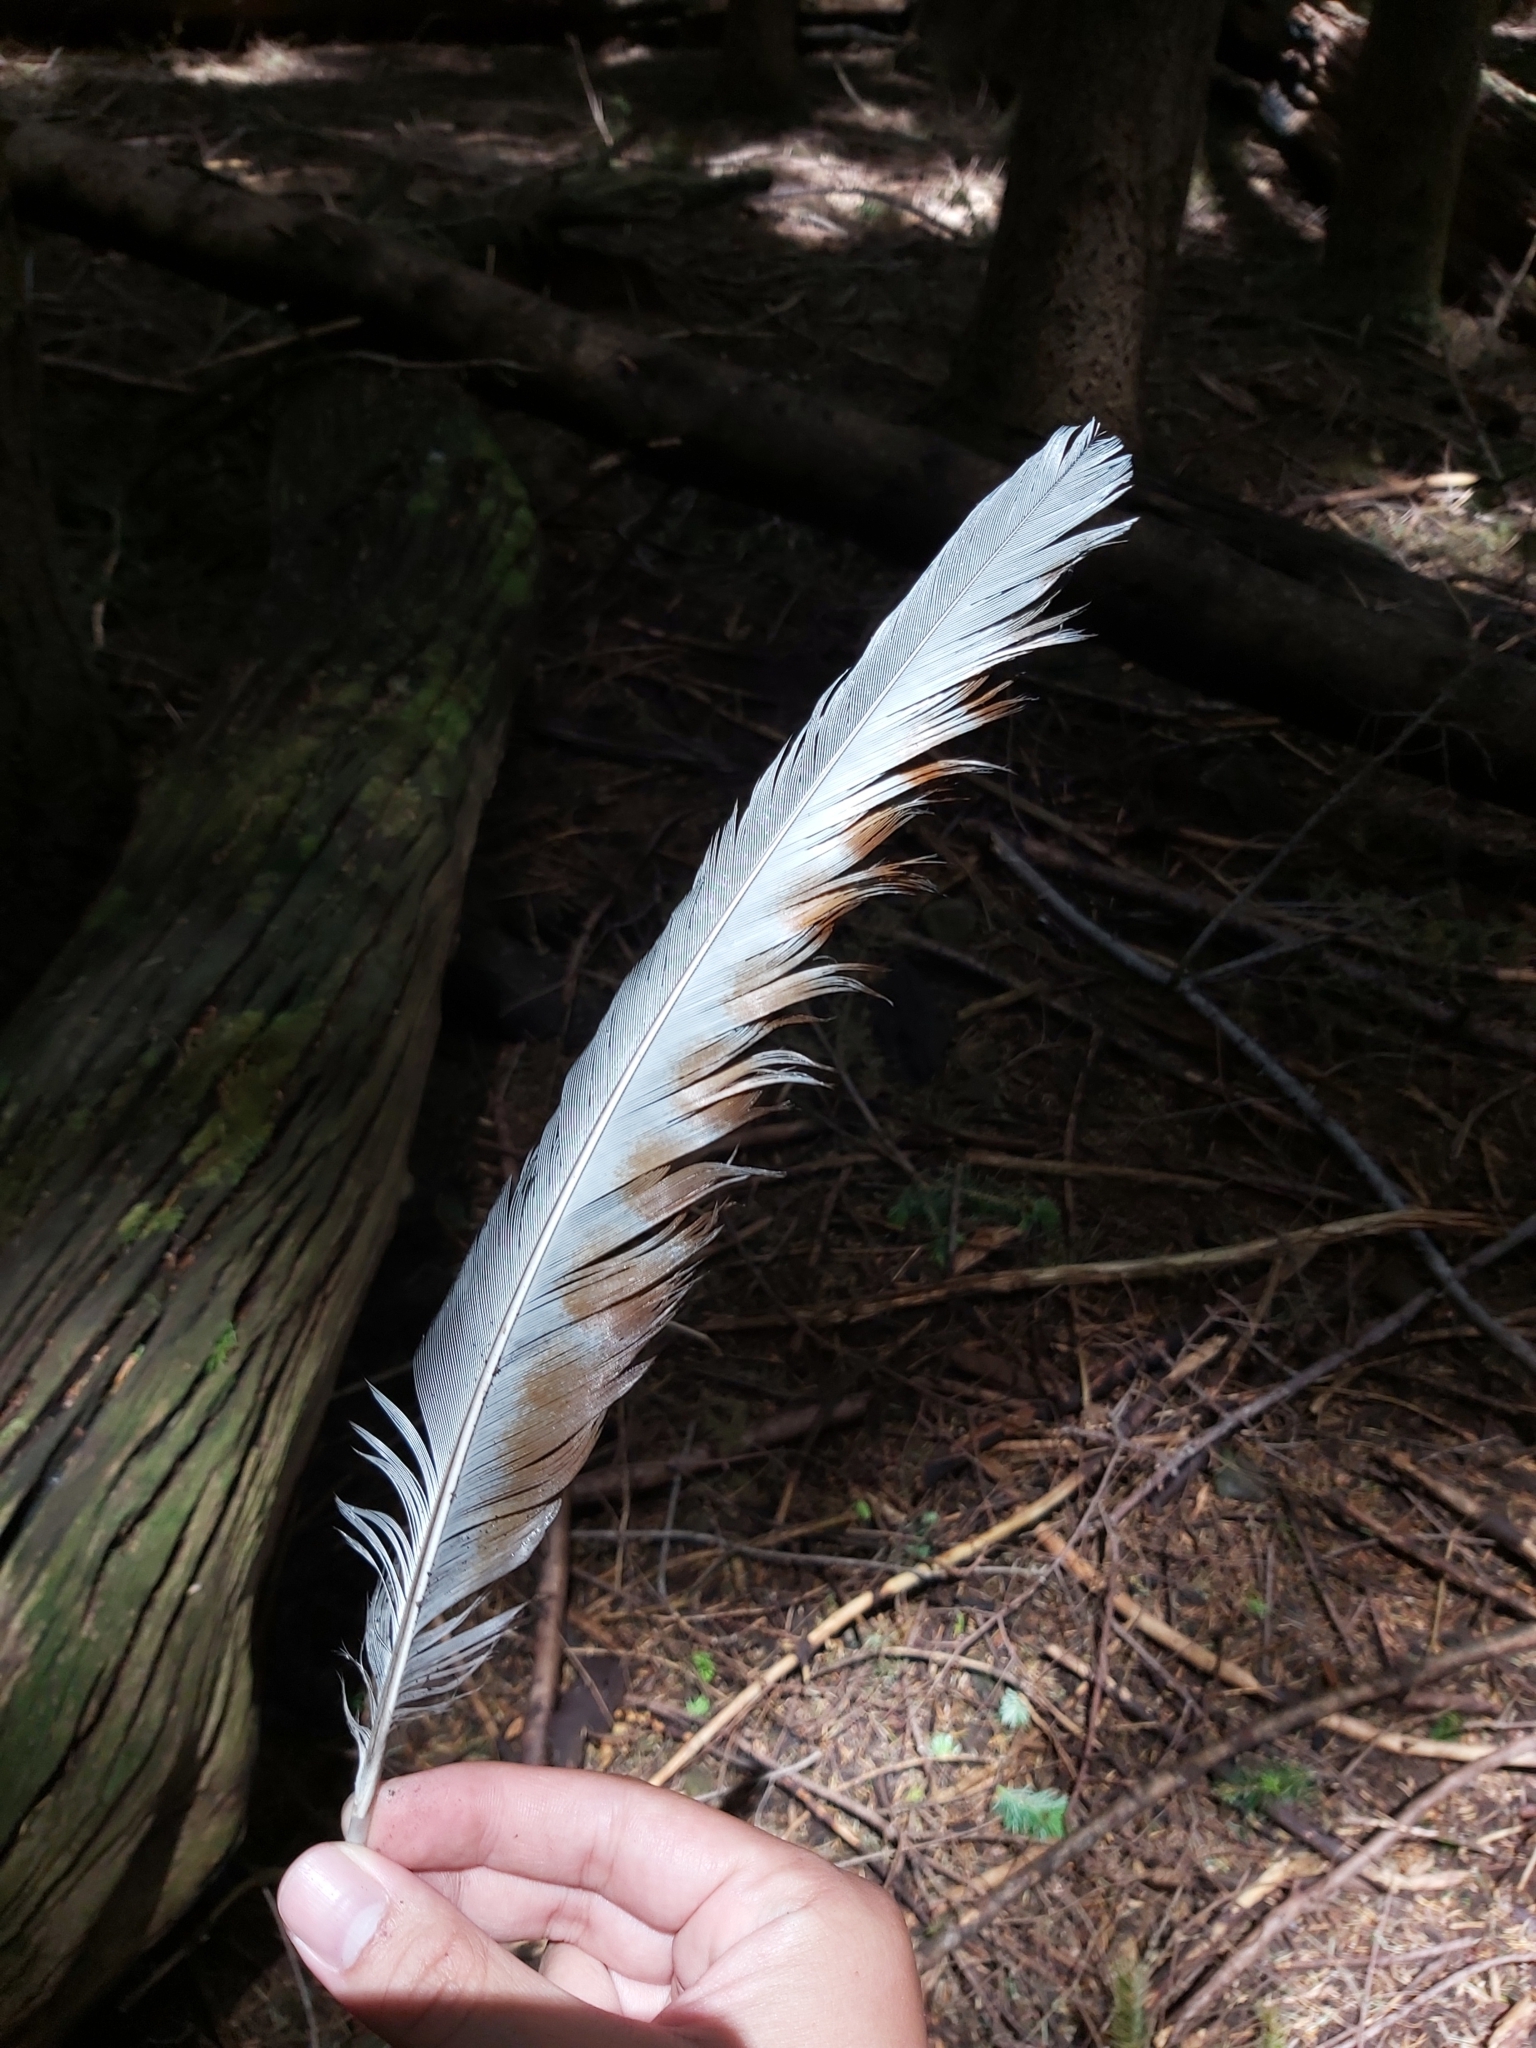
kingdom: Animalia
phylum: Chordata
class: Aves
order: Passeriformes
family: Menuridae
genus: Menura
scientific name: Menura novaehollandiae
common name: Superb lyrebird
